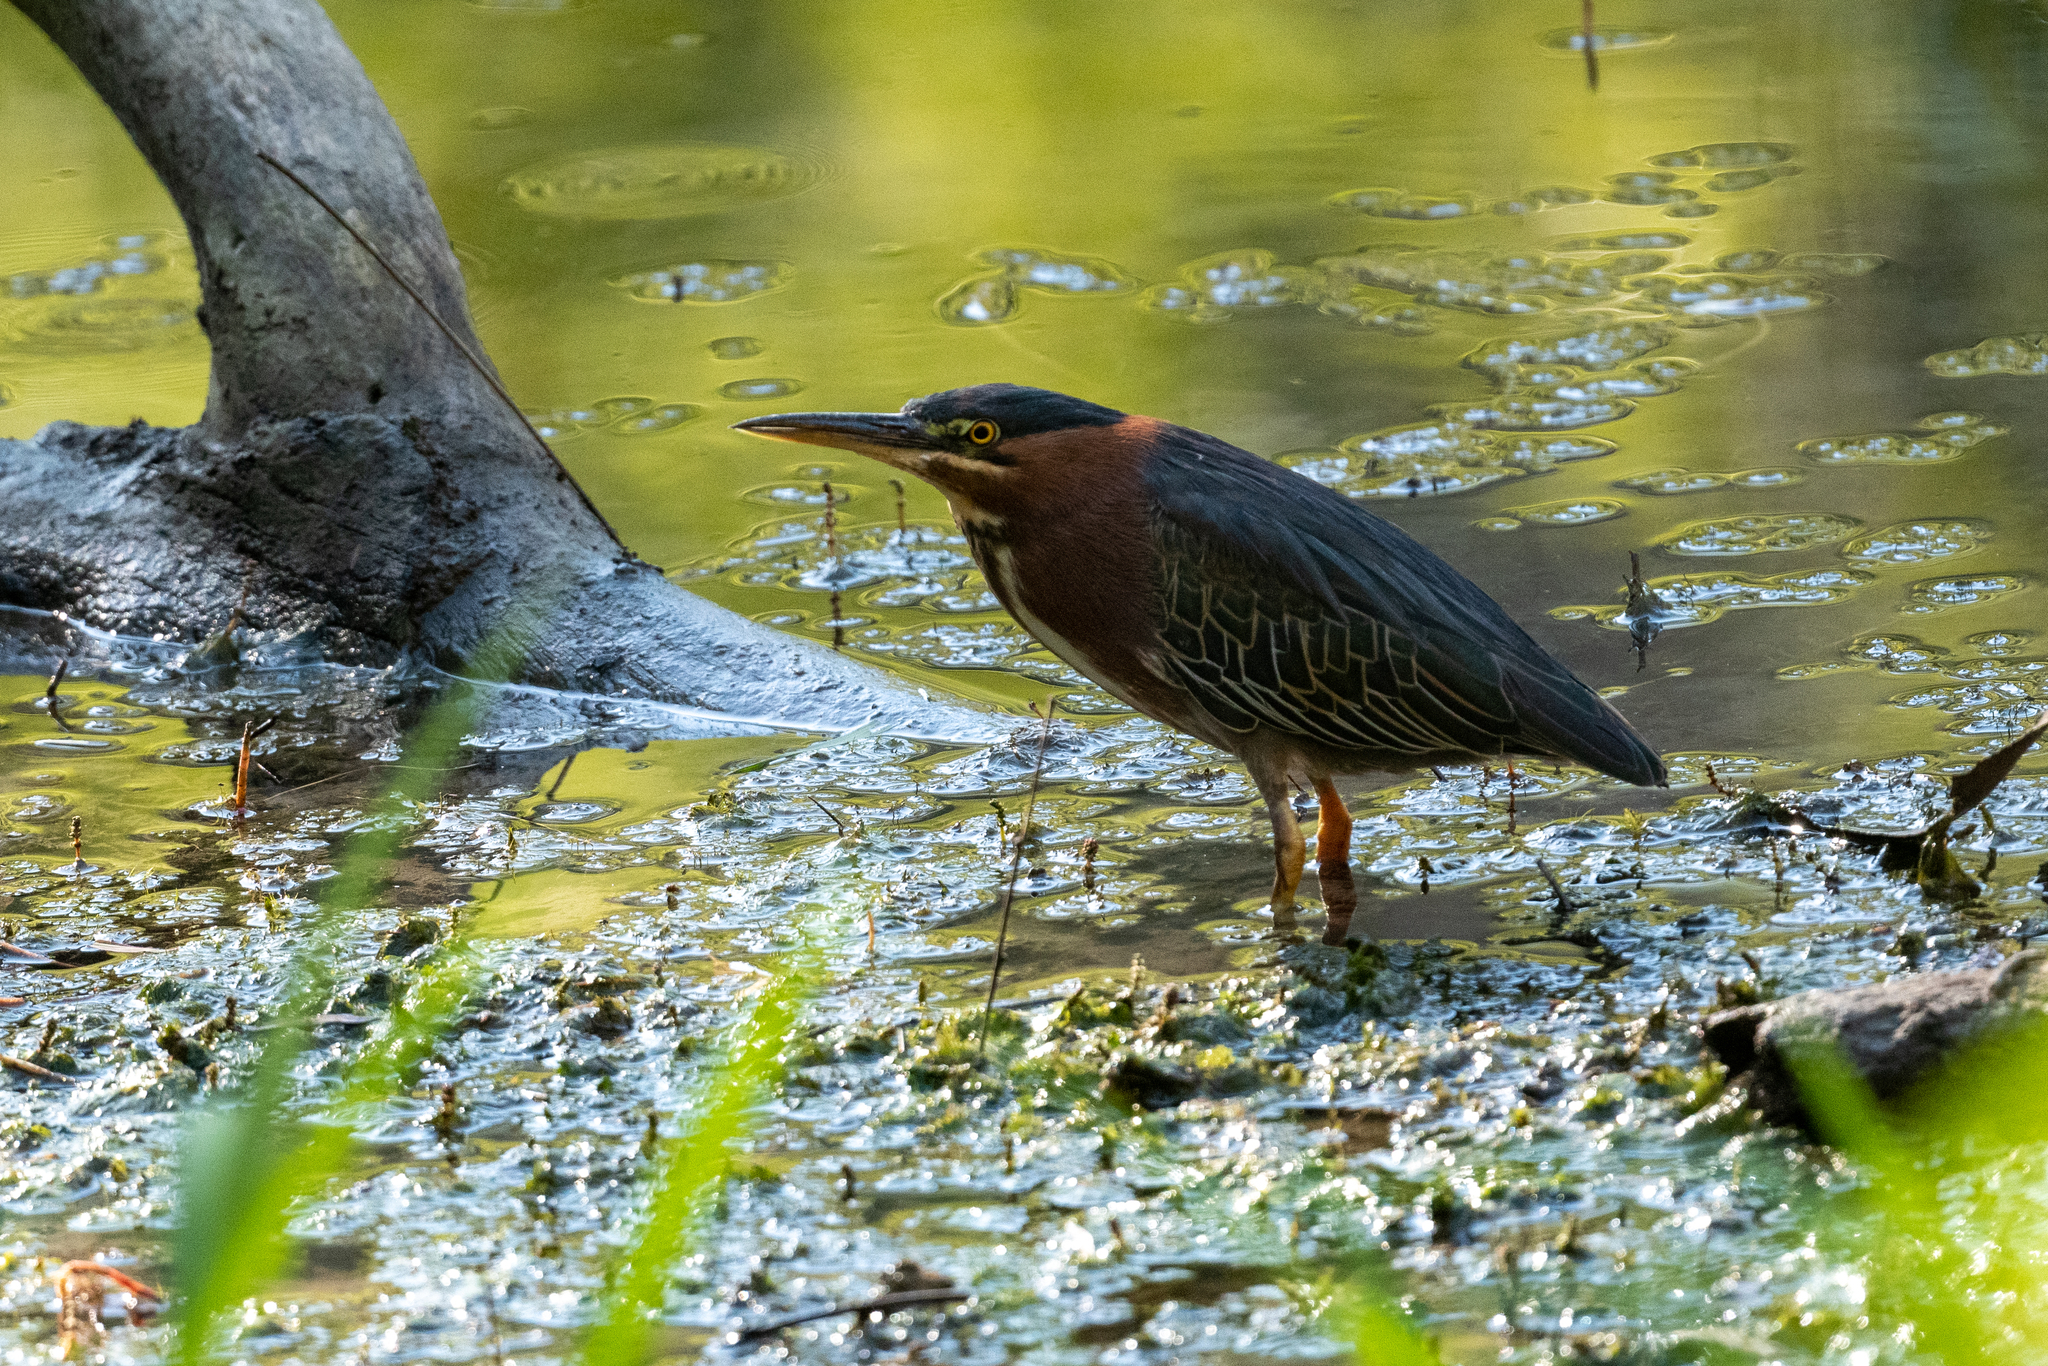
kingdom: Animalia
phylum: Chordata
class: Aves
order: Pelecaniformes
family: Ardeidae
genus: Butorides
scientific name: Butorides virescens
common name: Green heron
